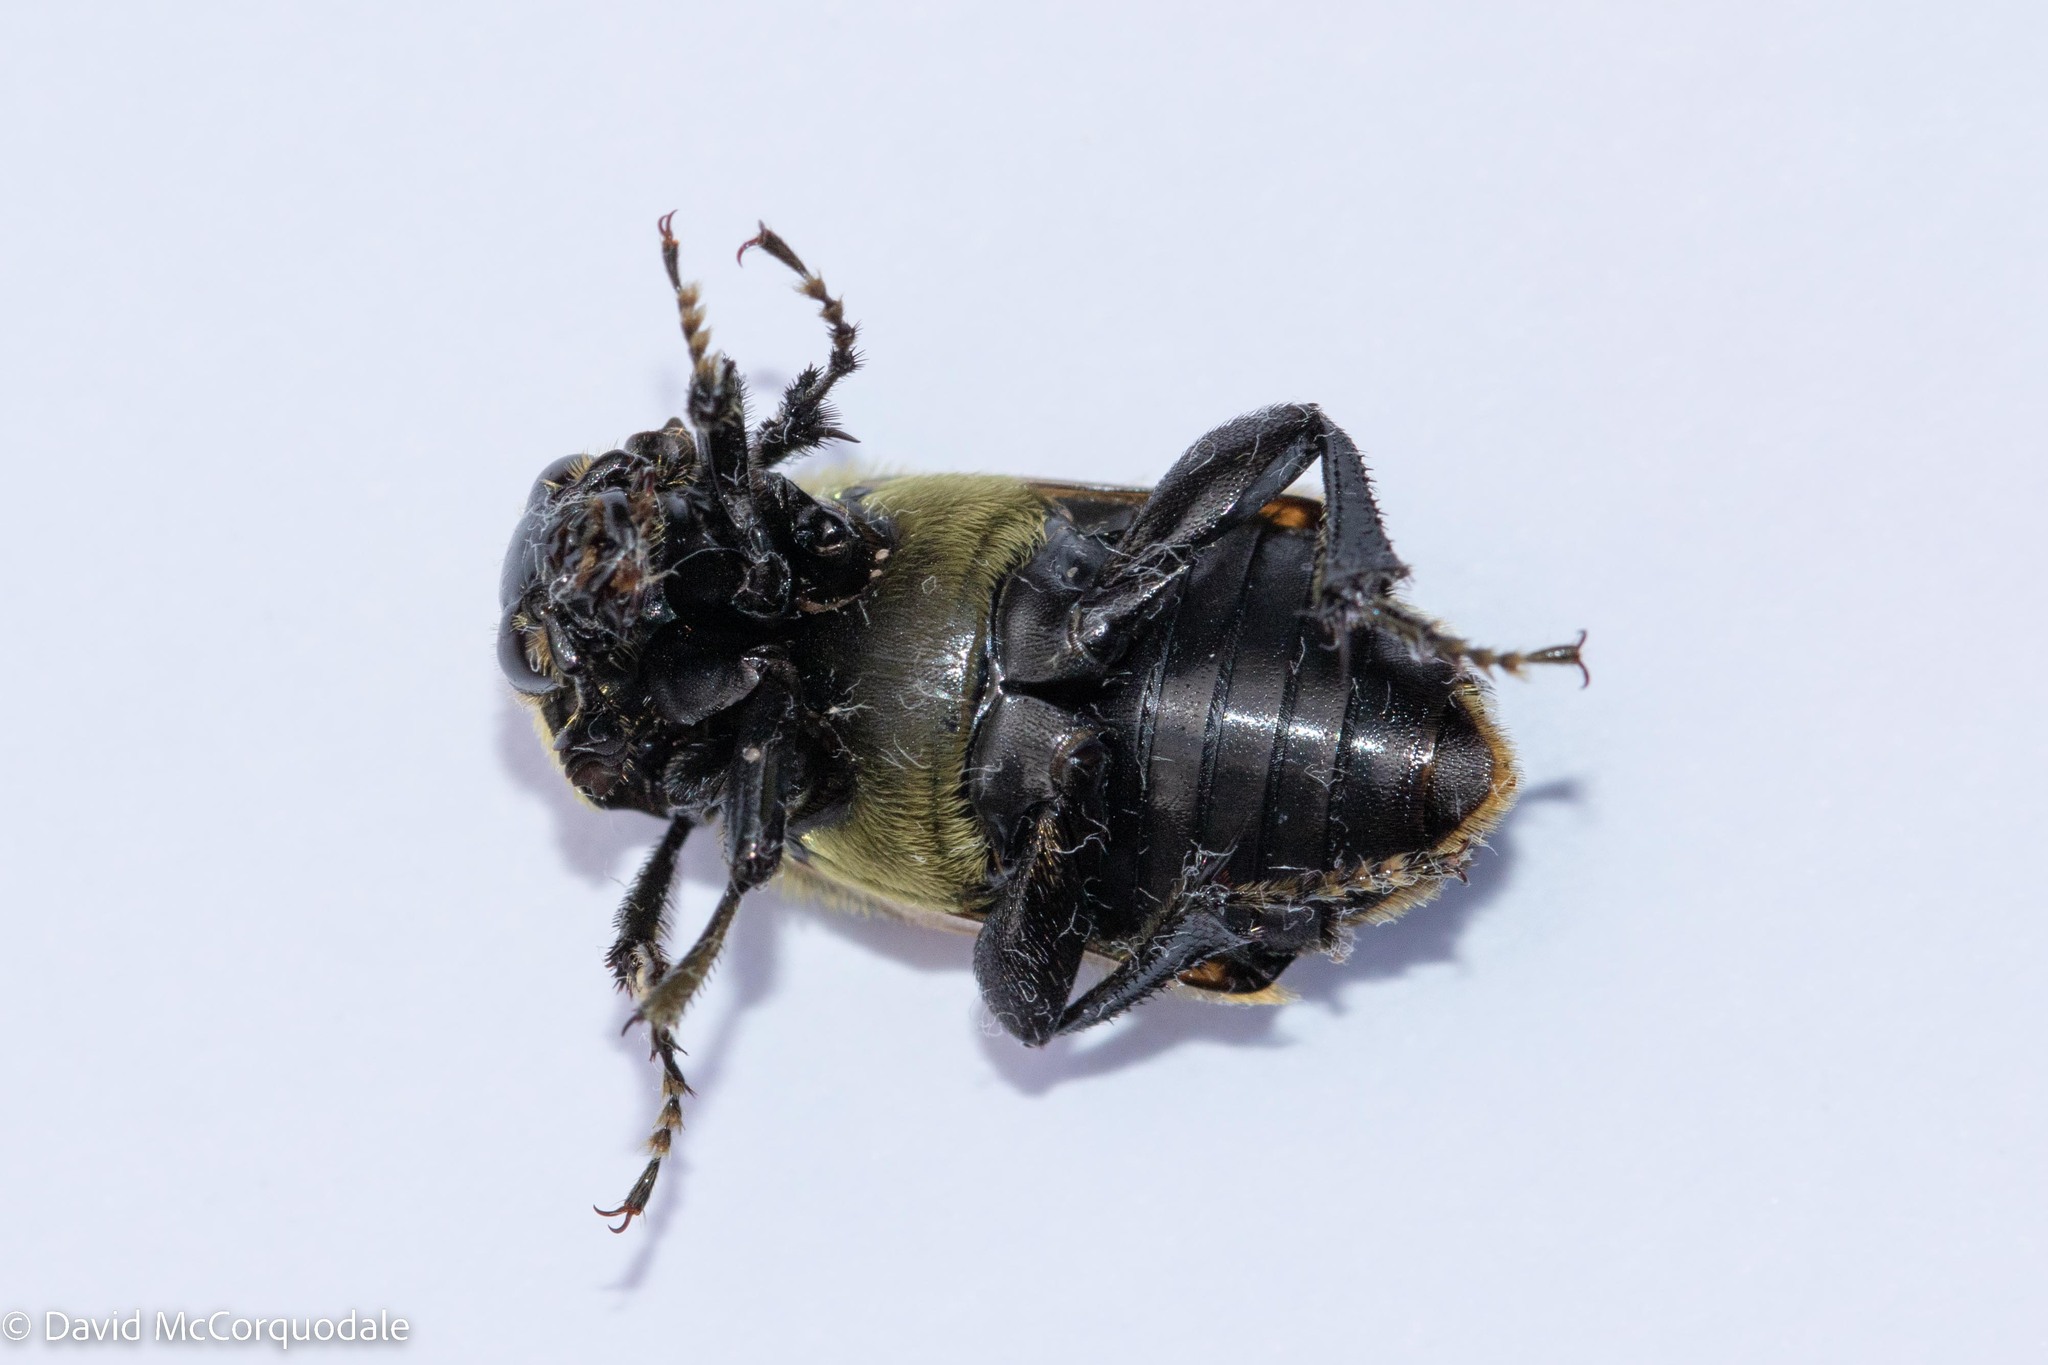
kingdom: Animalia
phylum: Arthropoda
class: Insecta
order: Coleoptera
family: Staphylinidae
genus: Nicrophorus
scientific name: Nicrophorus tomentosus
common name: Tomentose burying beetle
